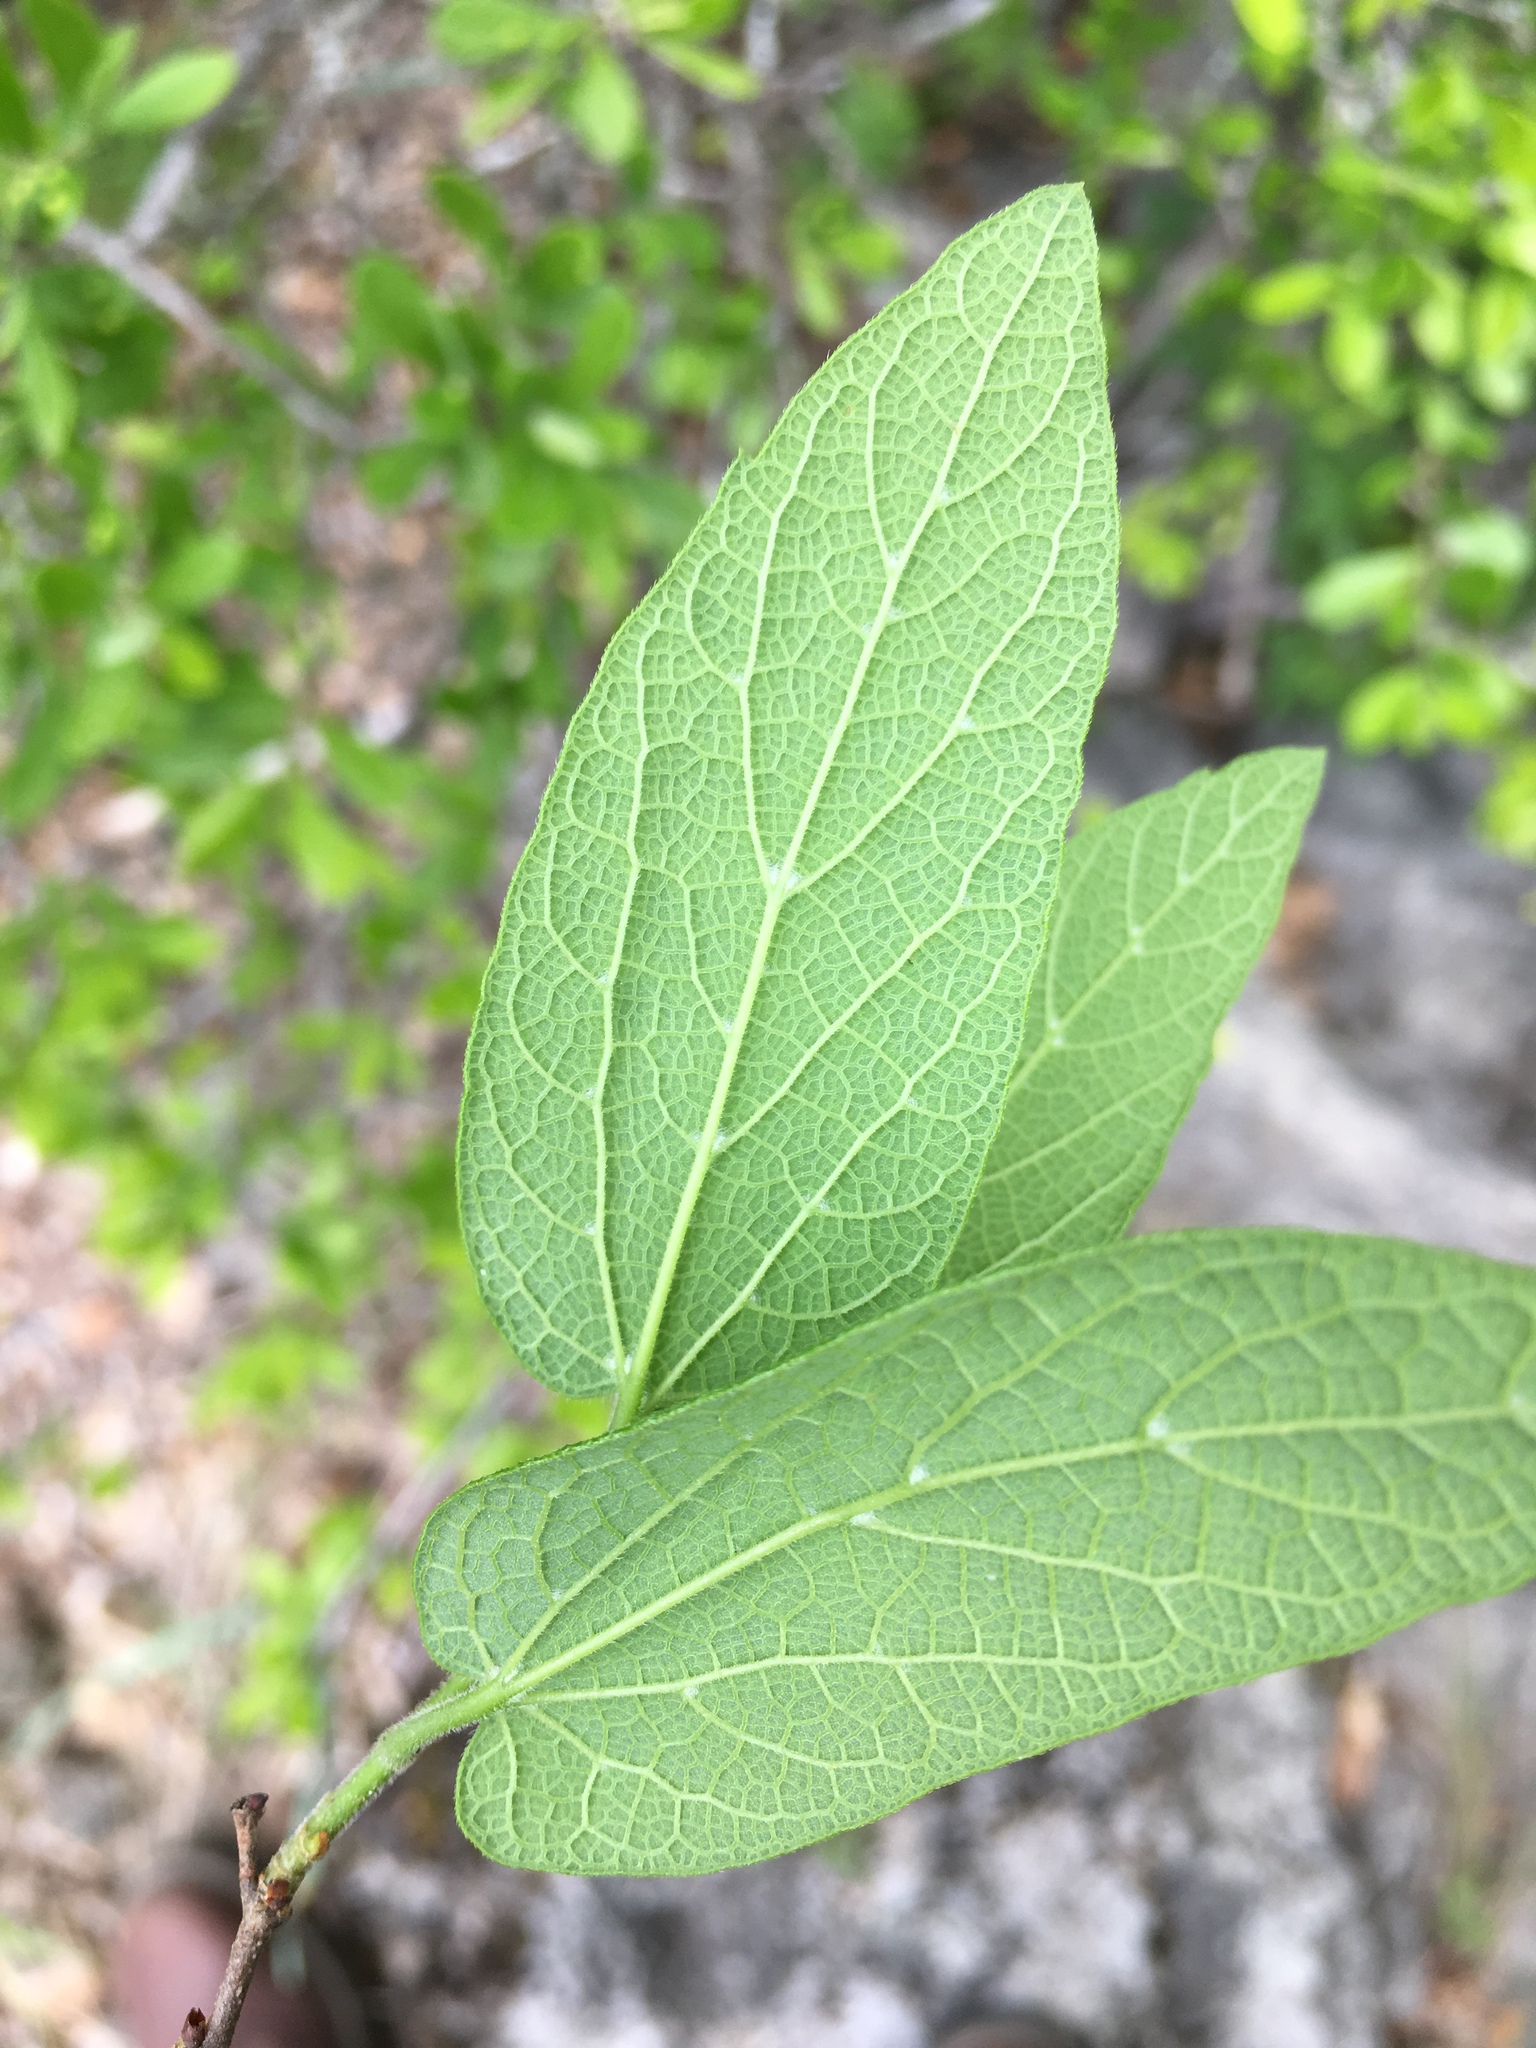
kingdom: Plantae
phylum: Tracheophyta
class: Magnoliopsida
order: Rosales
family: Cannabaceae
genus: Celtis
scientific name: Celtis laevigata
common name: Sugarberry
